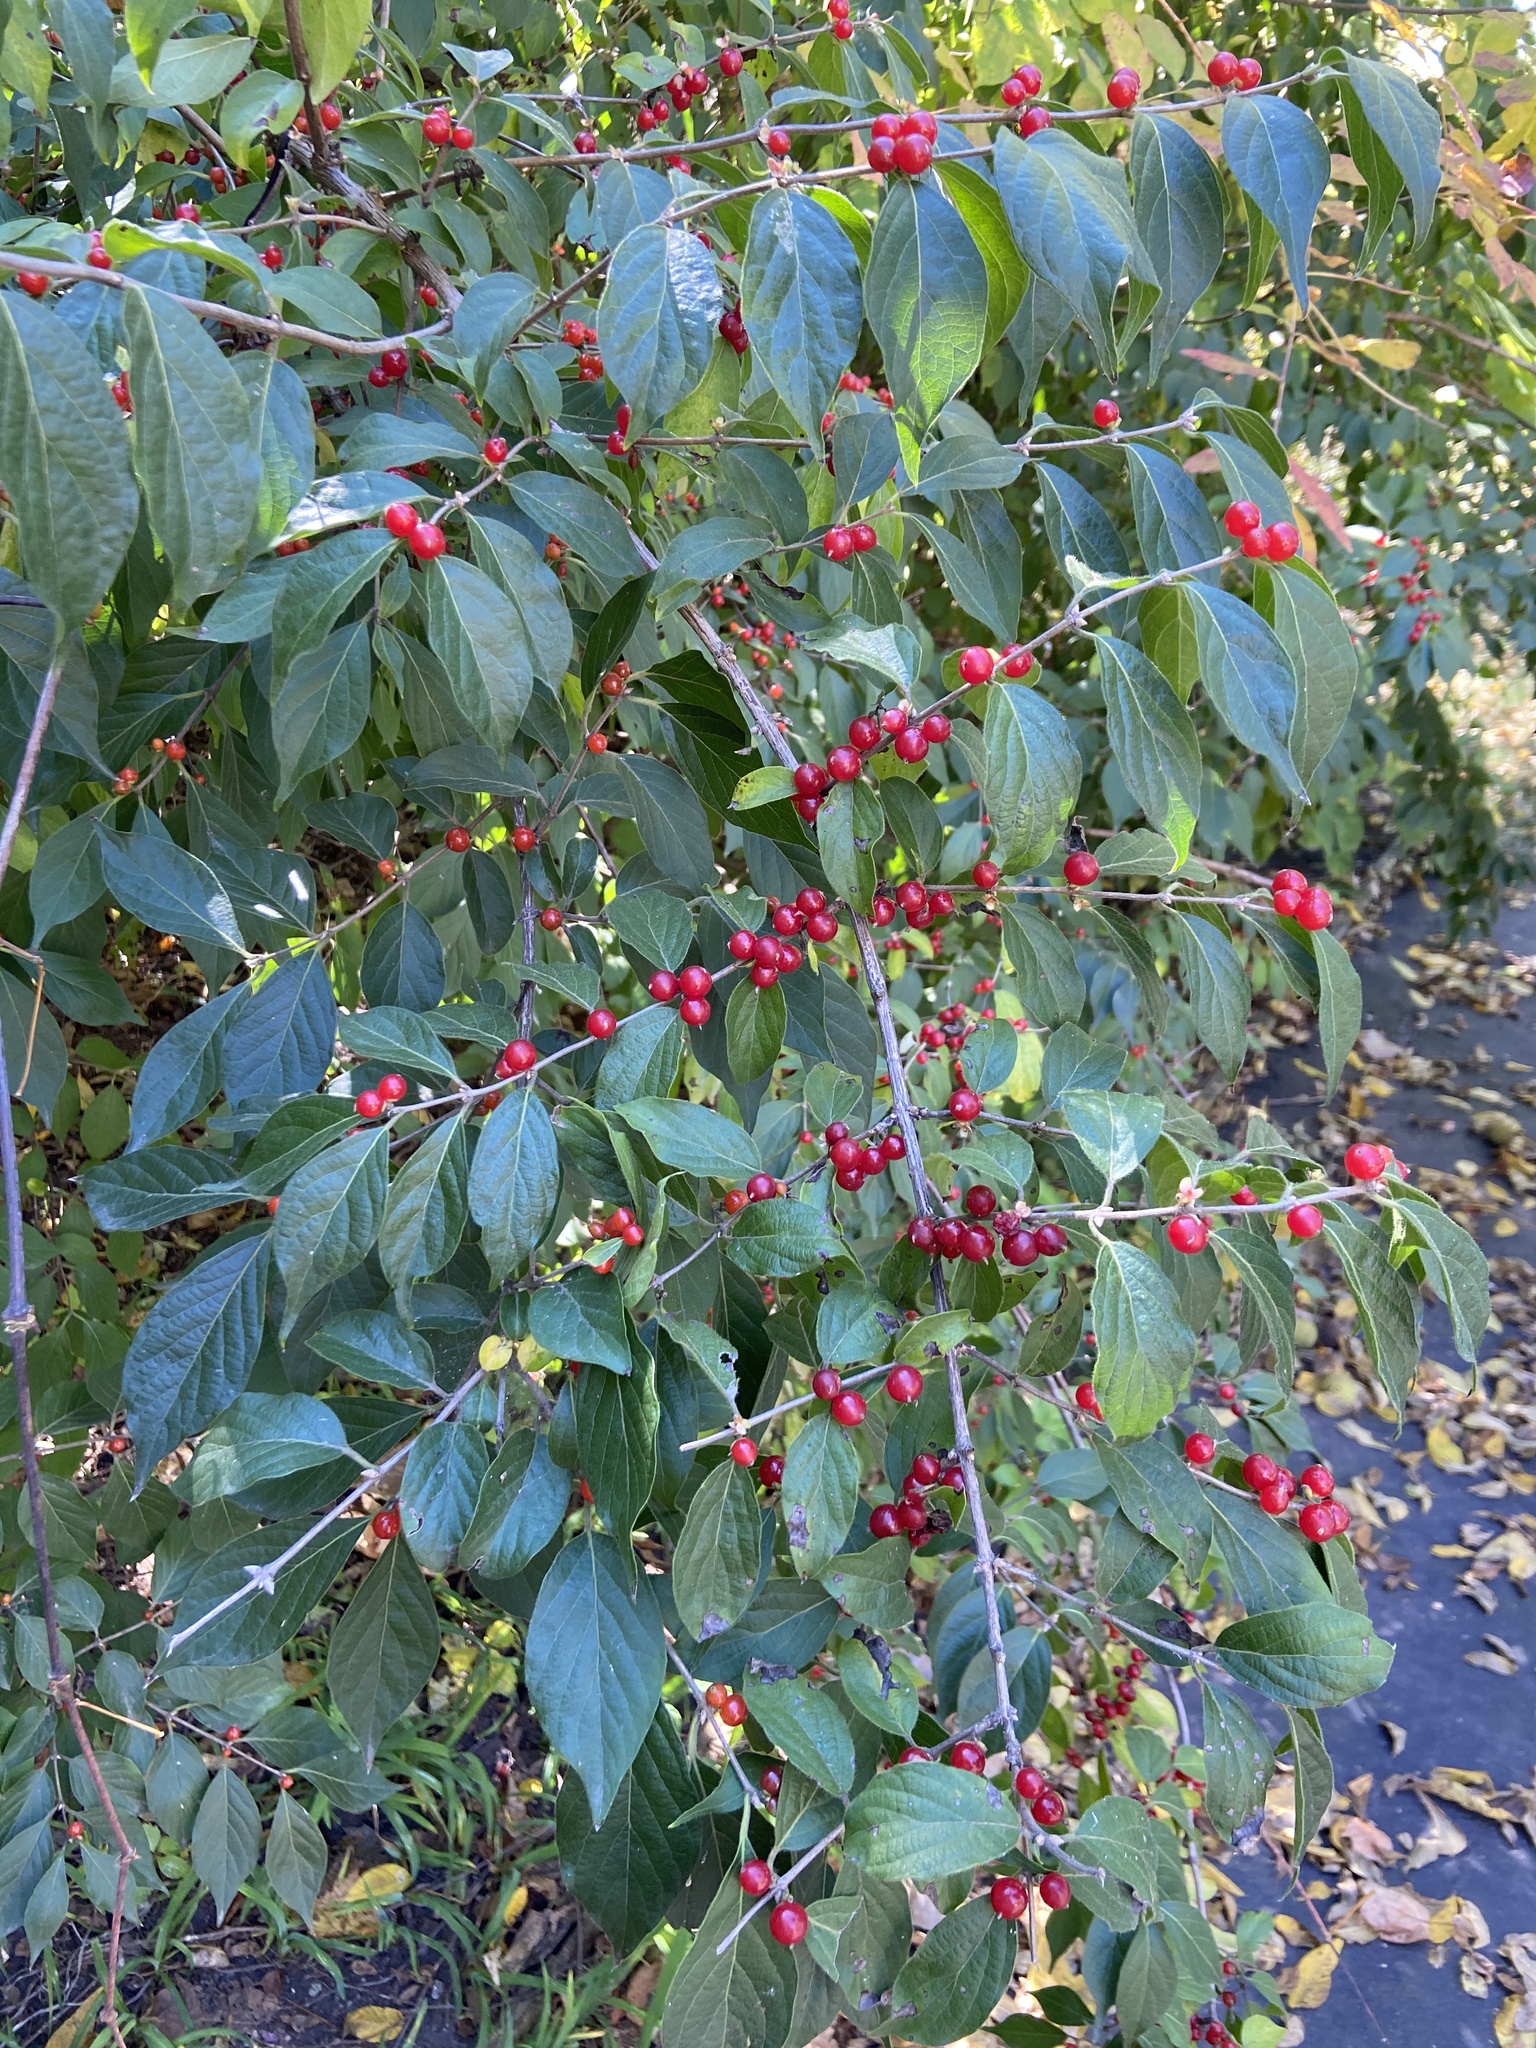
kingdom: Plantae
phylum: Tracheophyta
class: Magnoliopsida
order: Dipsacales
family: Caprifoliaceae
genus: Lonicera
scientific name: Lonicera maackii
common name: Amur honeysuckle
